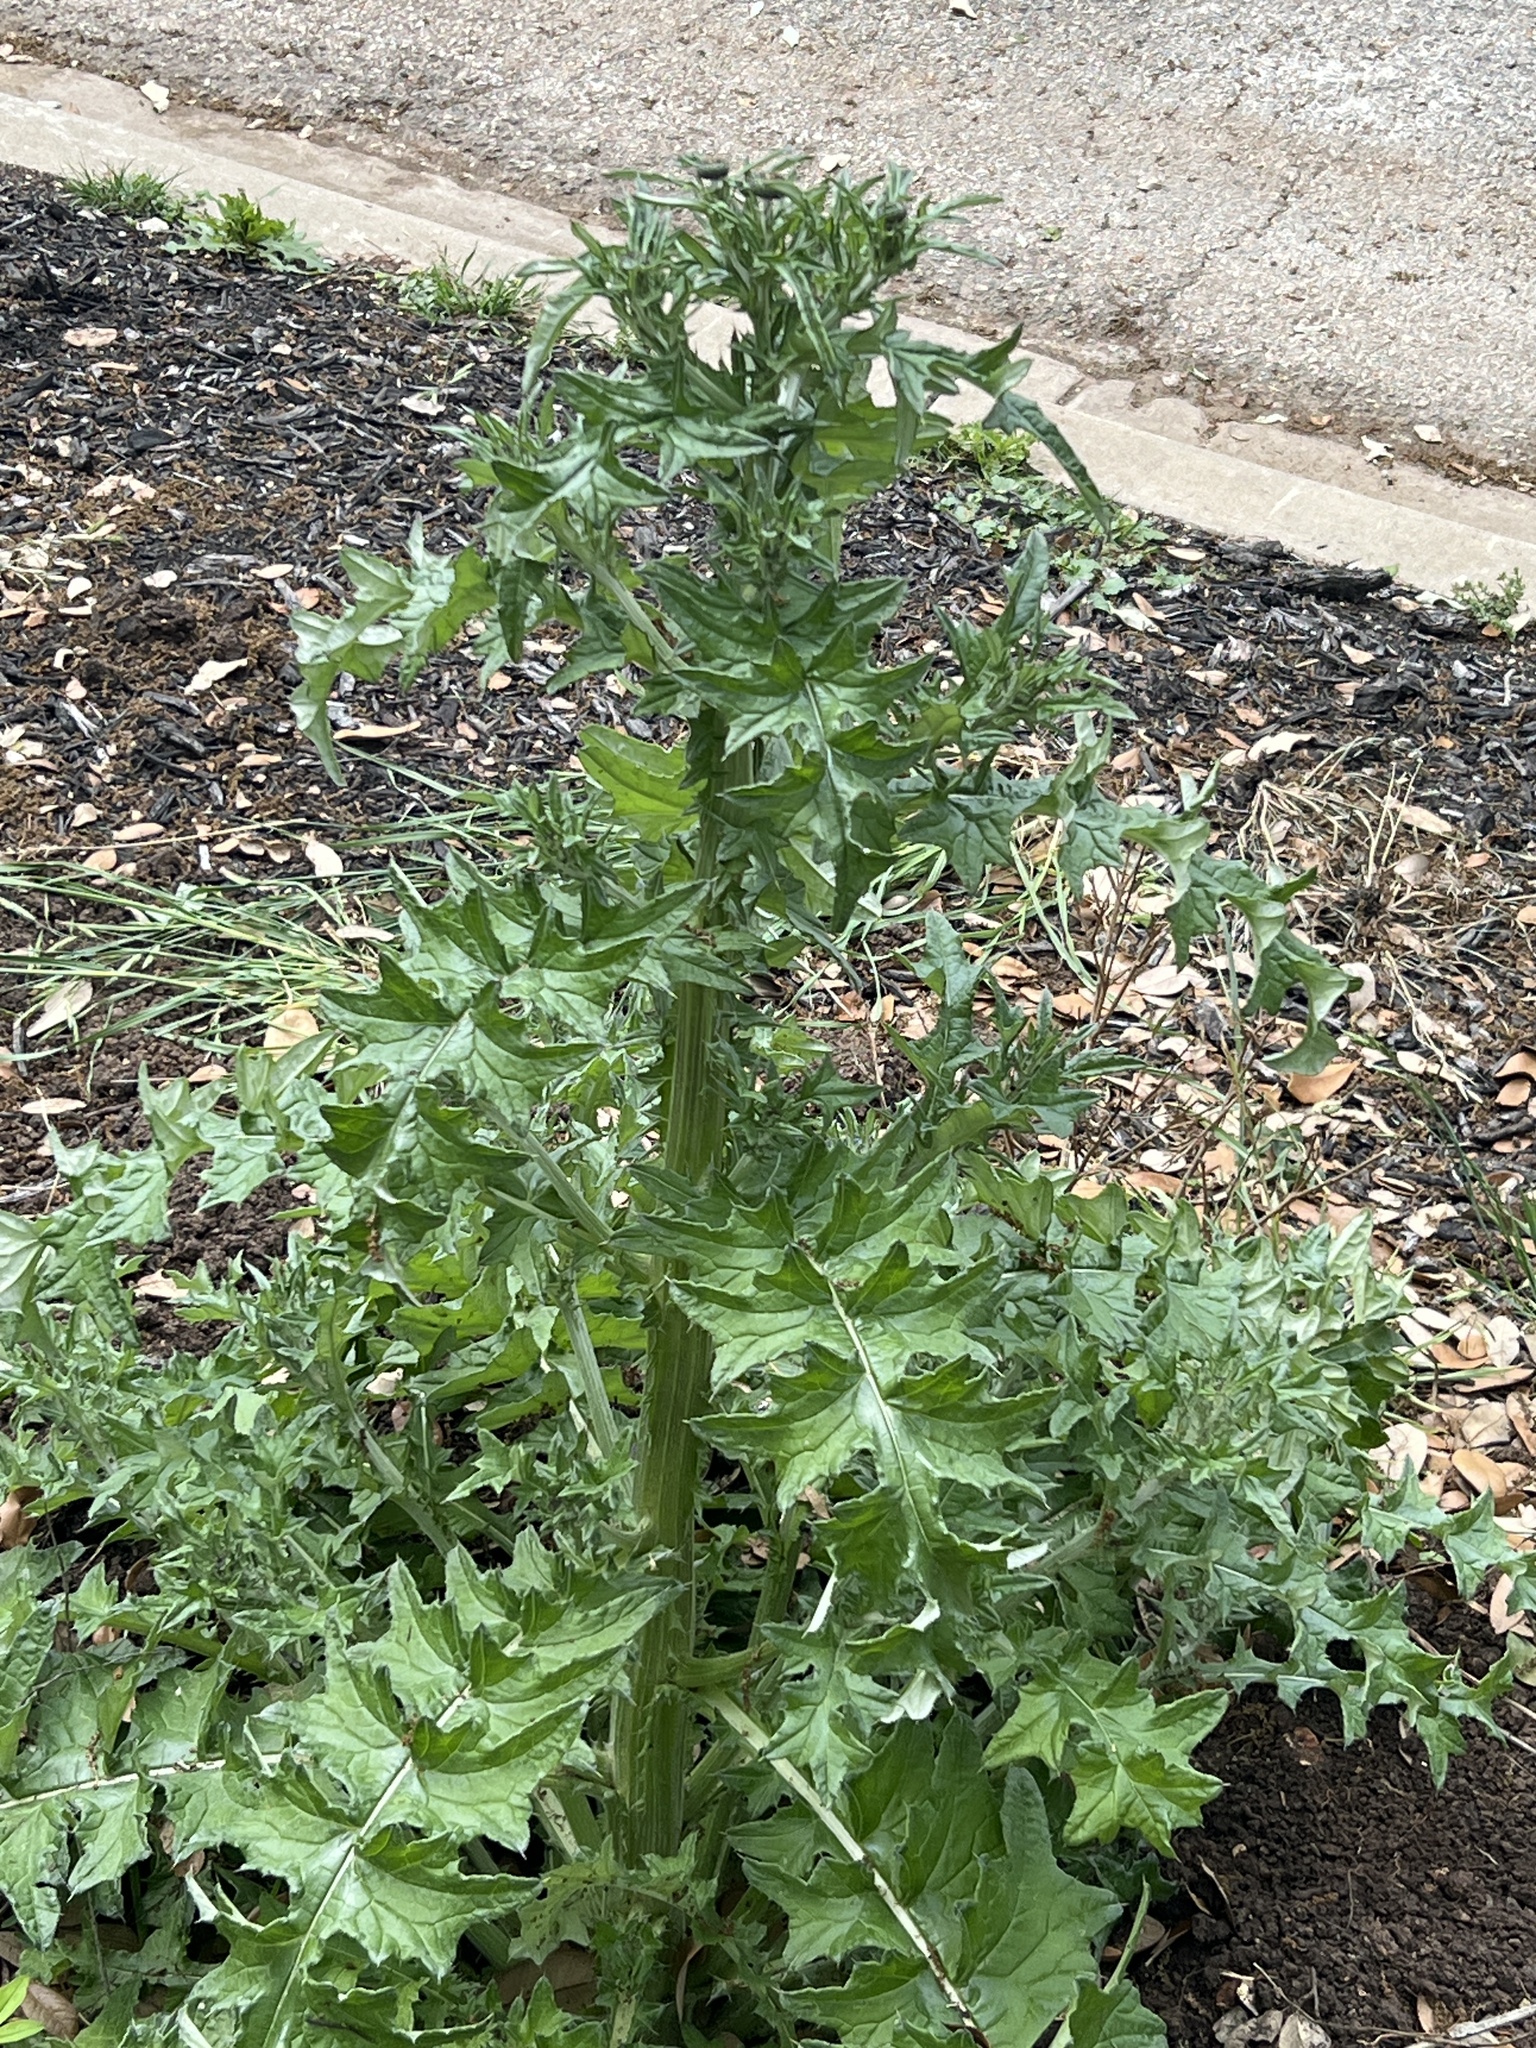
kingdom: Plantae
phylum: Tracheophyta
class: Magnoliopsida
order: Asterales
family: Asteraceae
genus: Cirsium
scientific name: Cirsium texanum
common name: Texas purple thistle
